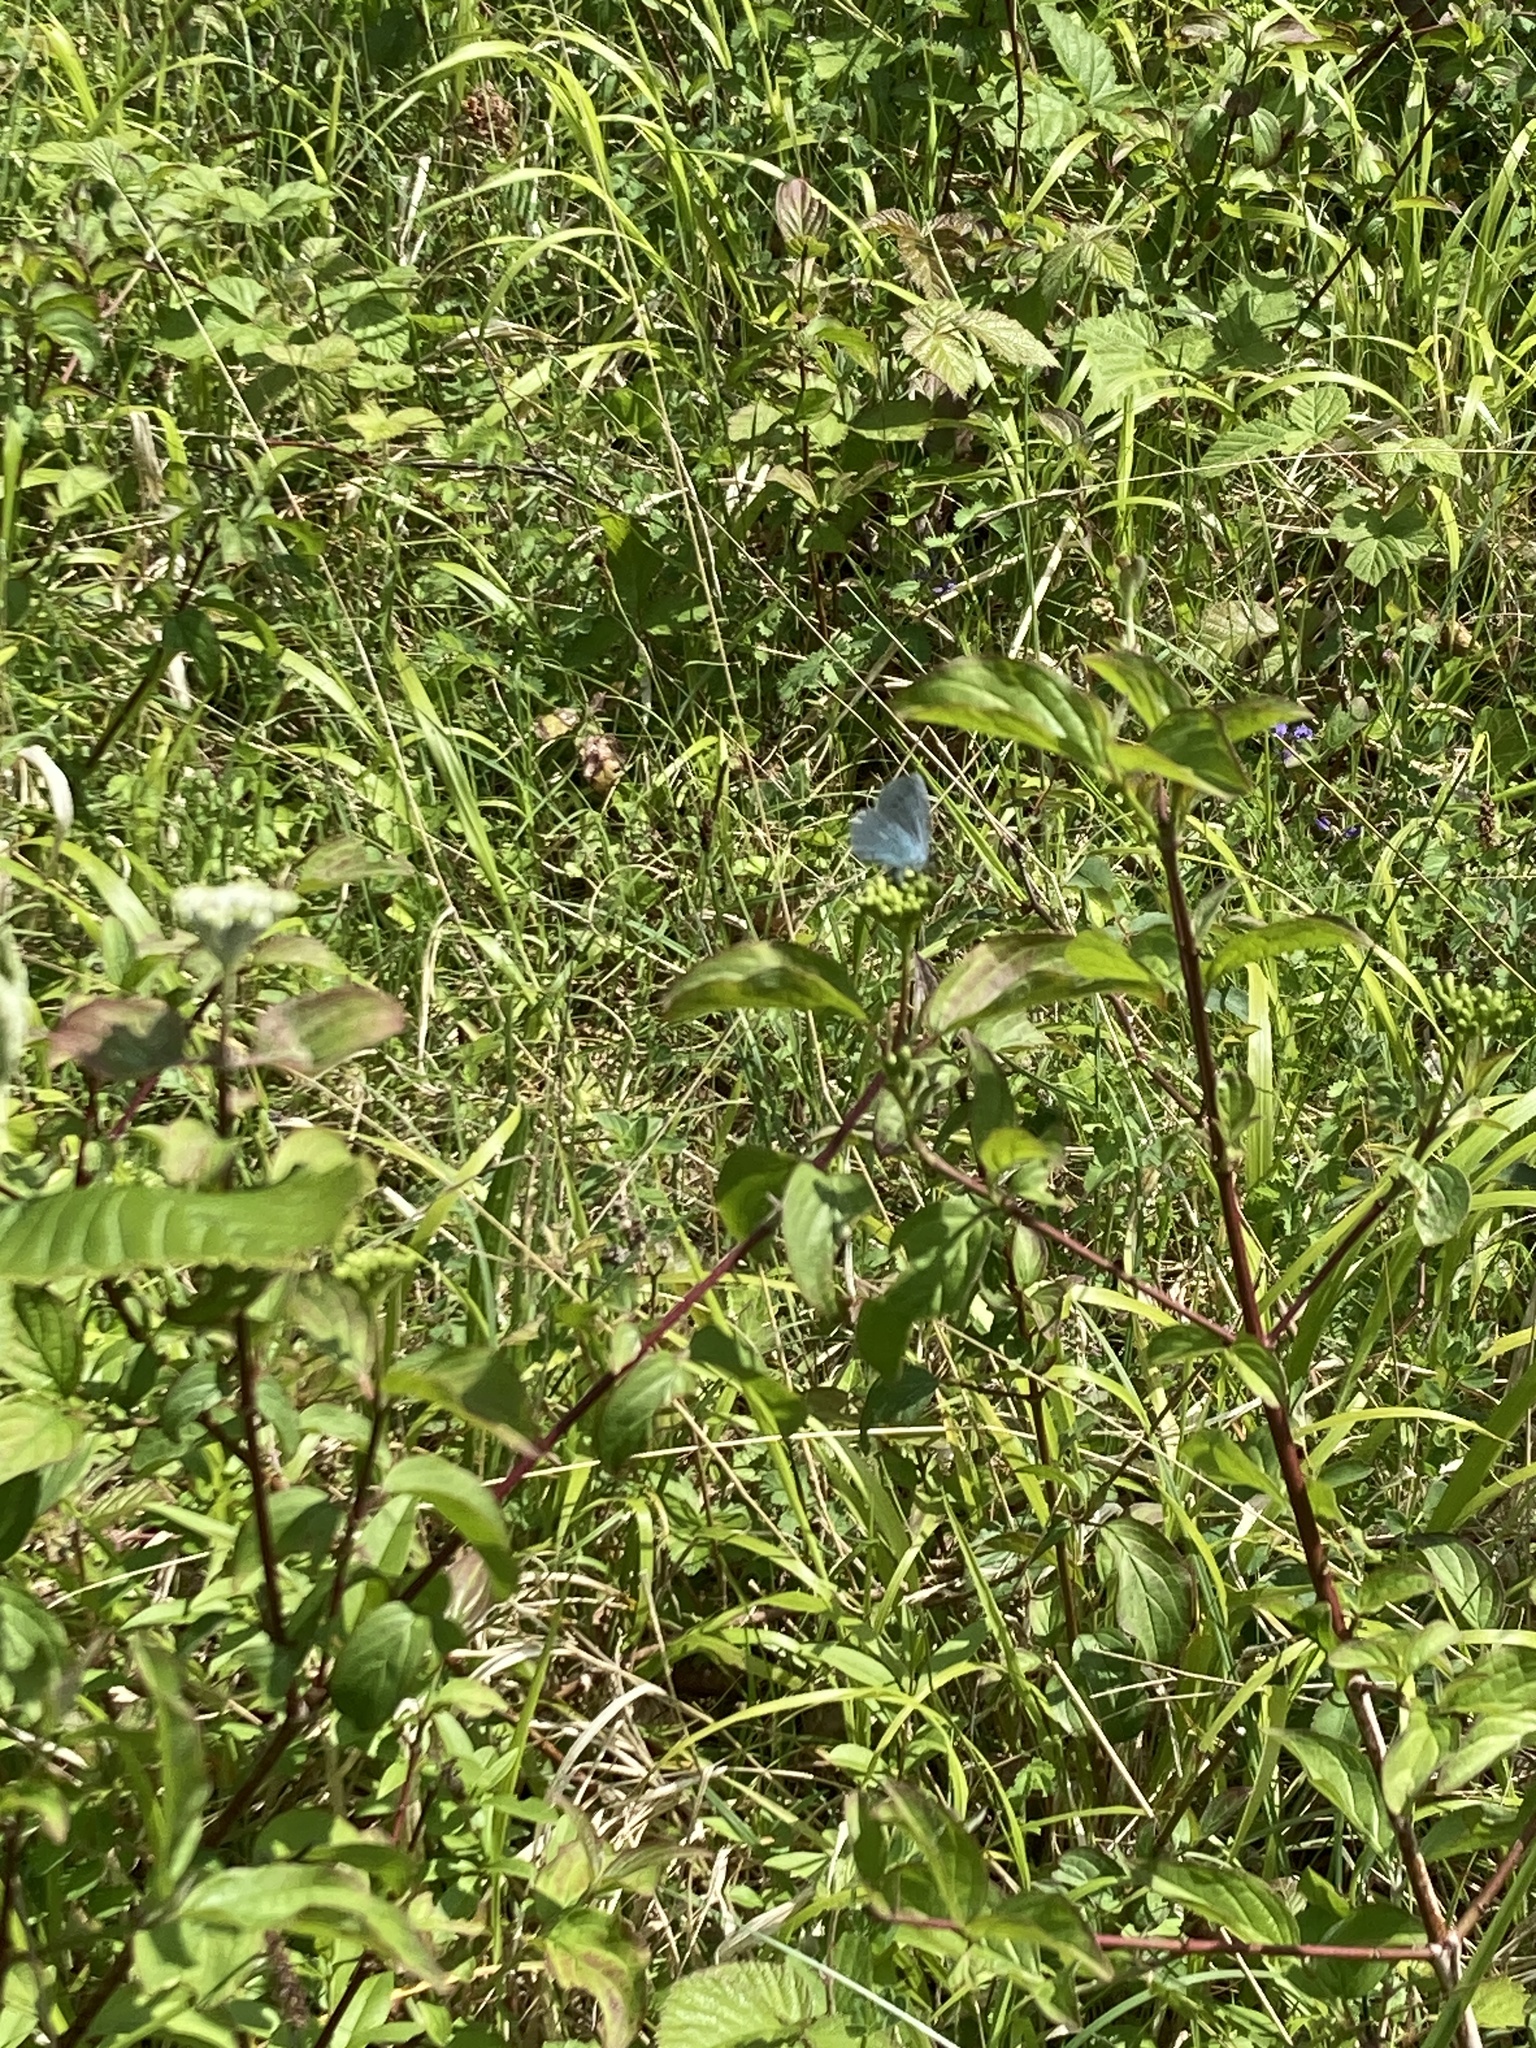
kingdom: Animalia
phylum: Arthropoda
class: Insecta
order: Lepidoptera
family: Lycaenidae
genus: Celastrina
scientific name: Celastrina argiolus
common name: Holly blue
